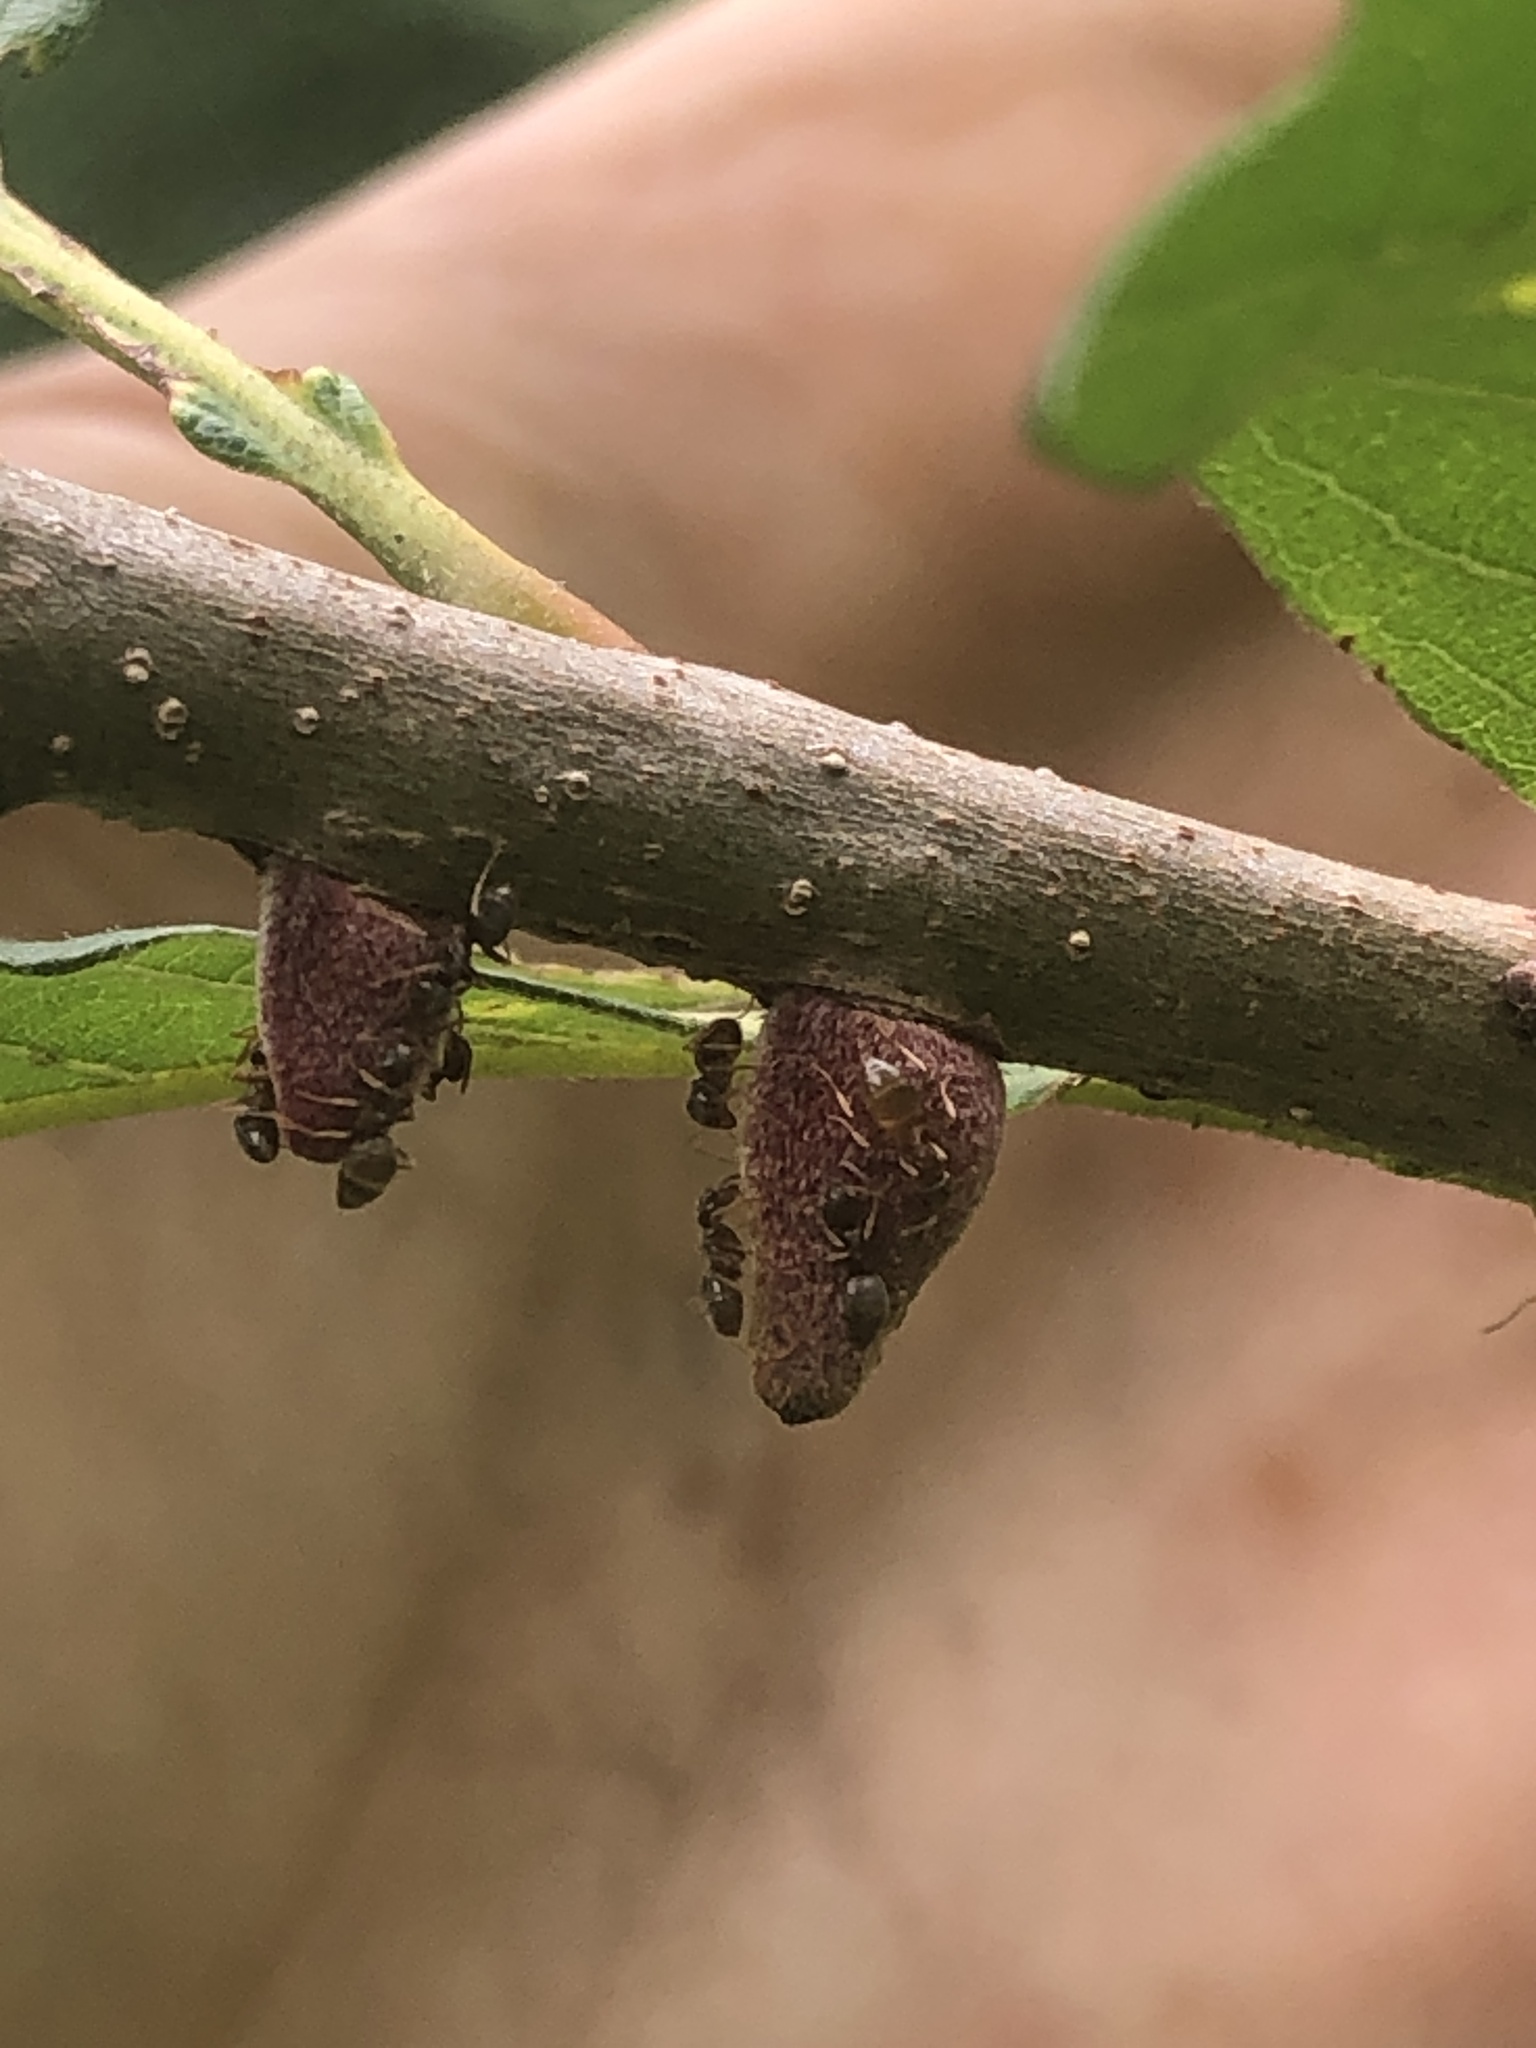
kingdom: Animalia
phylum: Arthropoda
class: Insecta
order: Hymenoptera
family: Cynipidae
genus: Disholcaspis
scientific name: Disholcaspis
